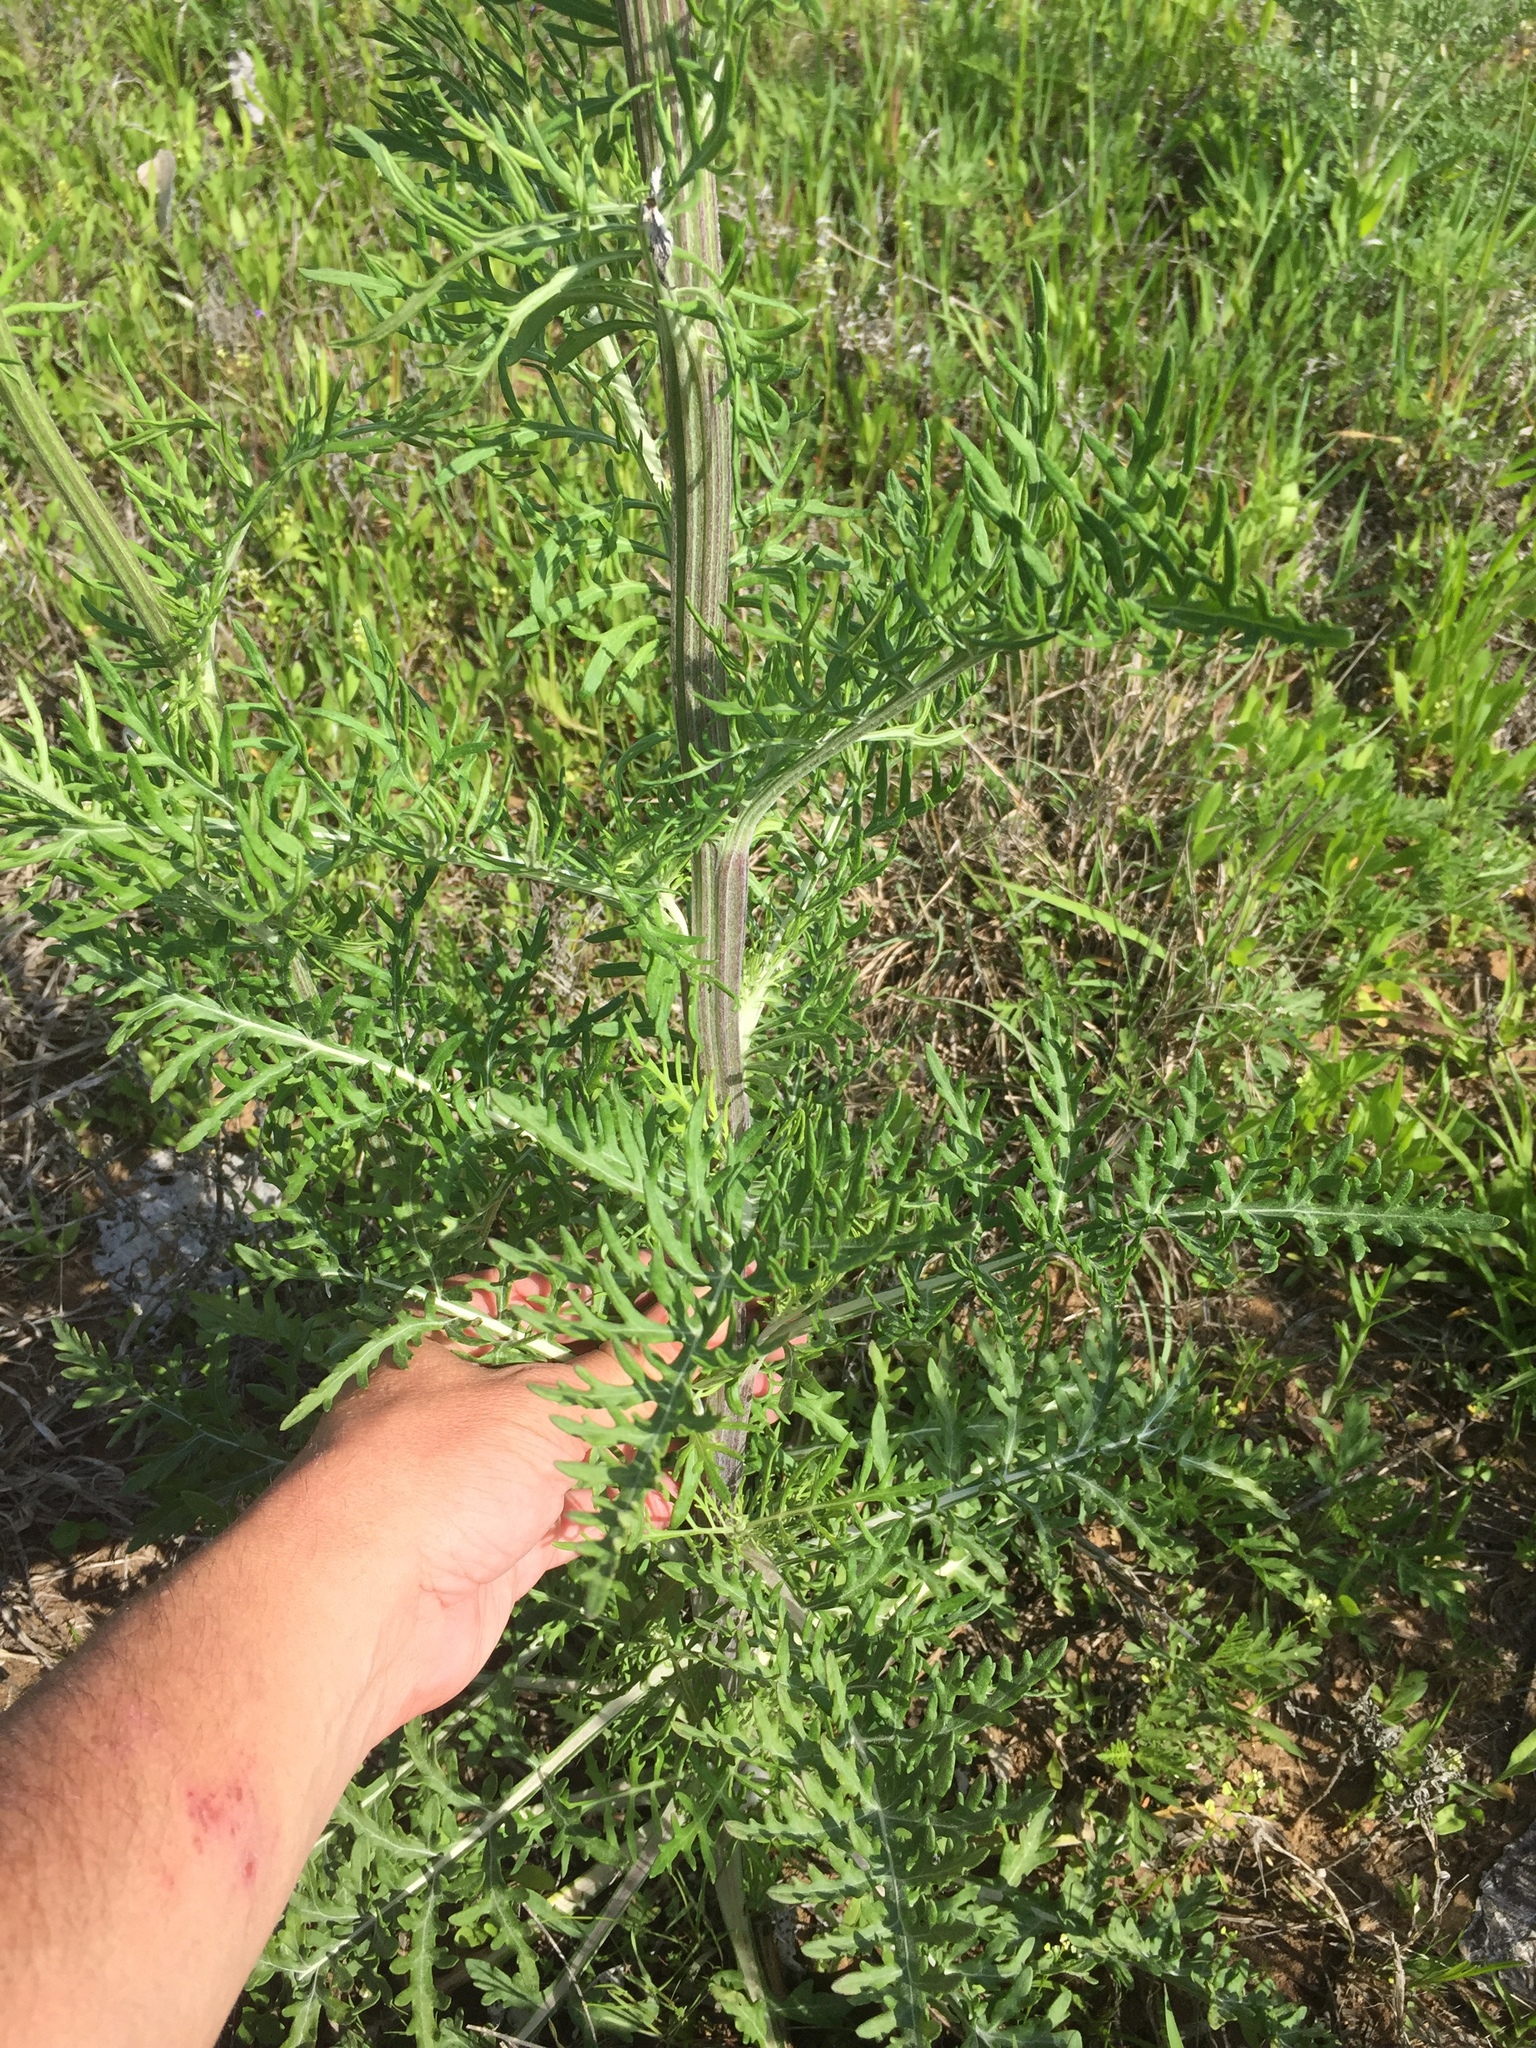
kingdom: Plantae
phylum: Tracheophyta
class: Magnoliopsida
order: Asterales
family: Asteraceae
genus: Hymenopappus
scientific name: Hymenopappus scabiosaeus
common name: Carolina woollywhite
